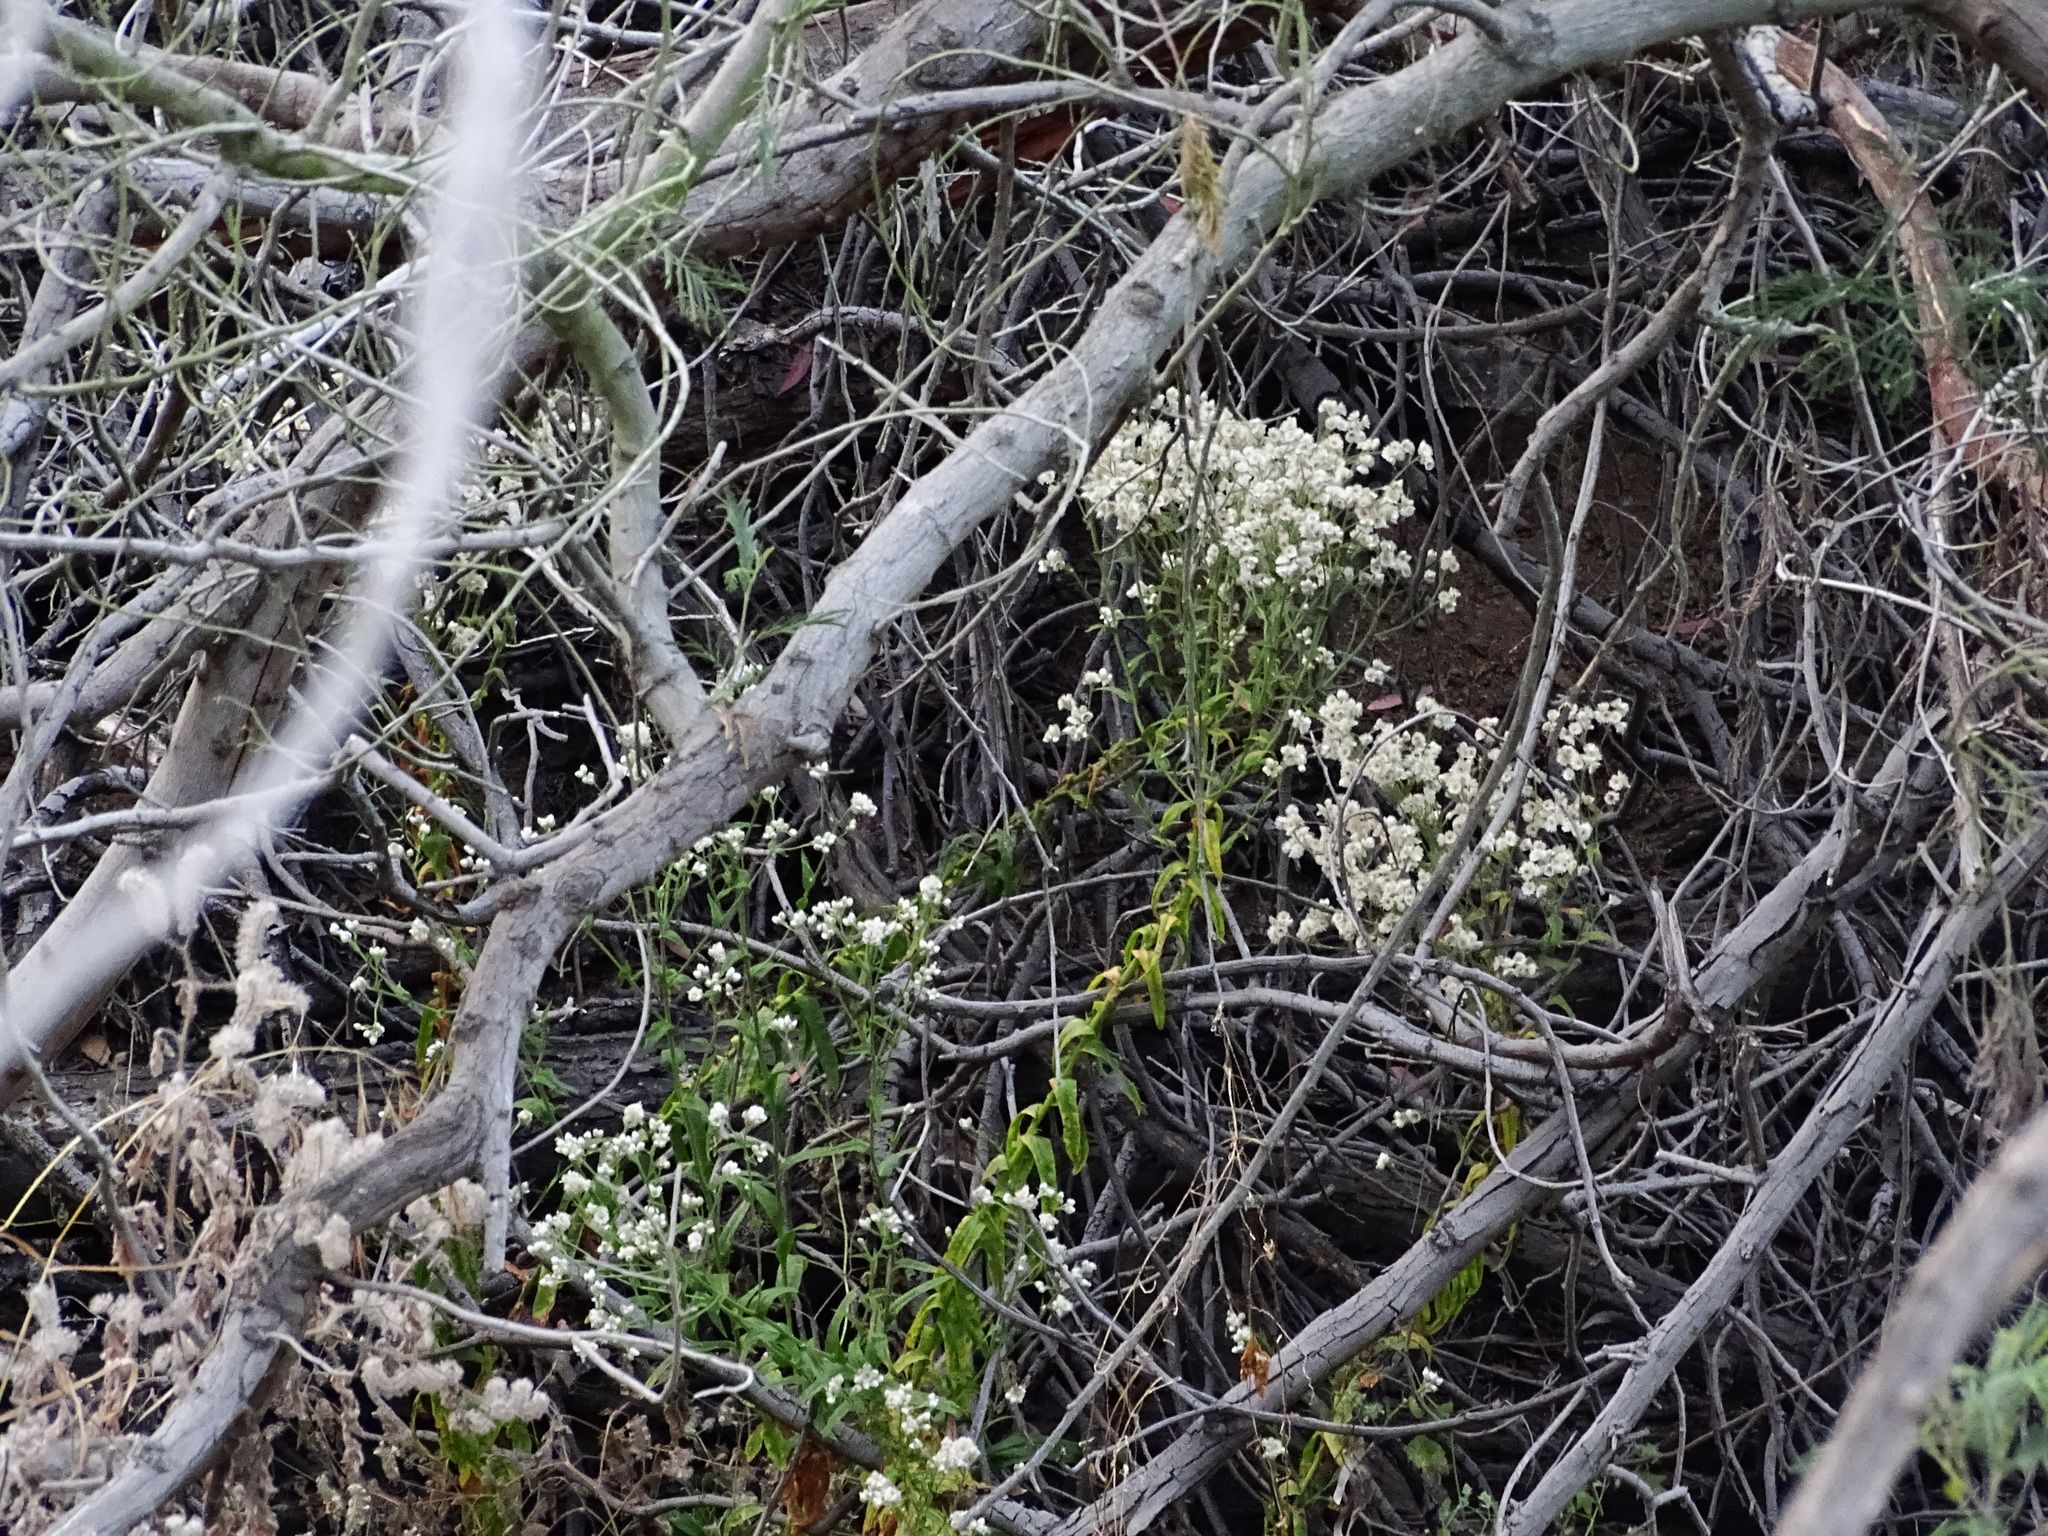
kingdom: Plantae
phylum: Tracheophyta
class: Magnoliopsida
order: Asterales
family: Asteraceae
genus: Pseudognaphalium
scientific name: Pseudognaphalium californicum
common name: California rabbit-tobacco
